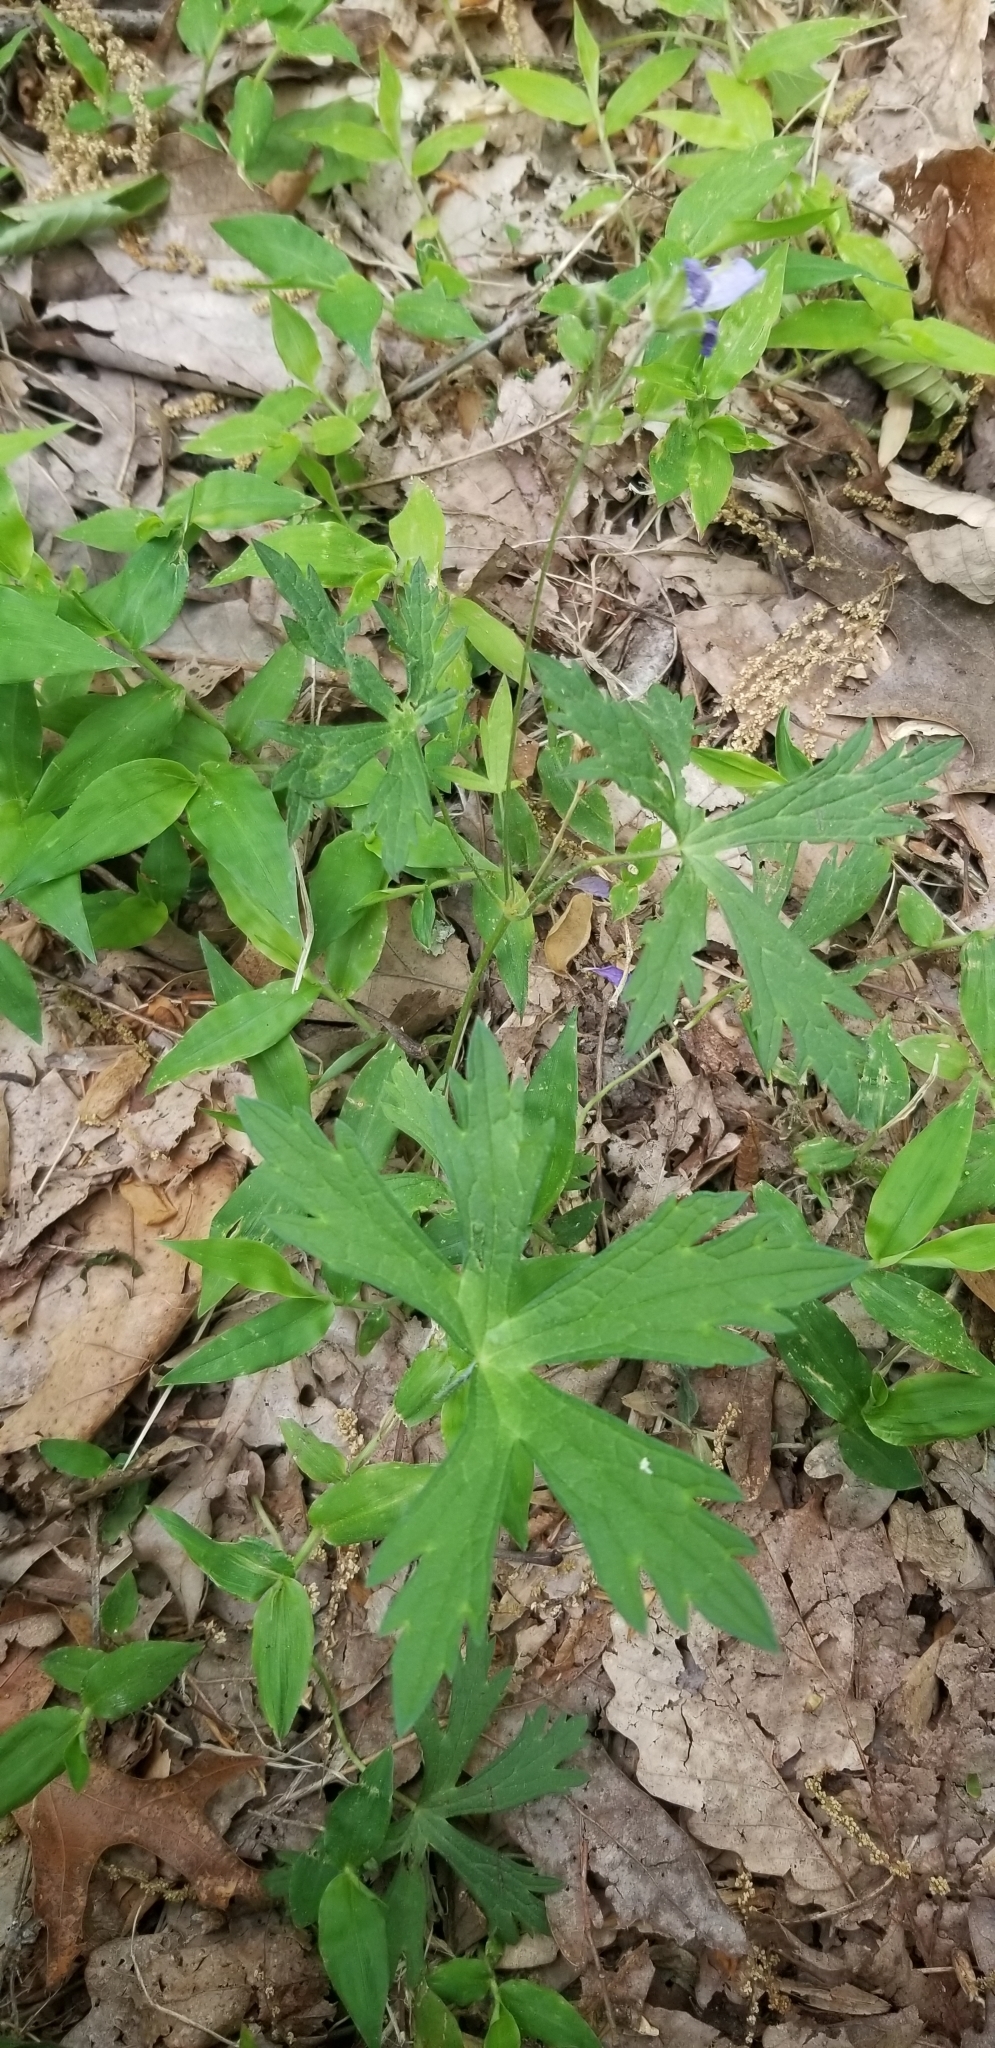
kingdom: Plantae
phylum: Tracheophyta
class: Magnoliopsida
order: Geraniales
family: Geraniaceae
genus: Geranium
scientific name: Geranium maculatum
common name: Spotted geranium
